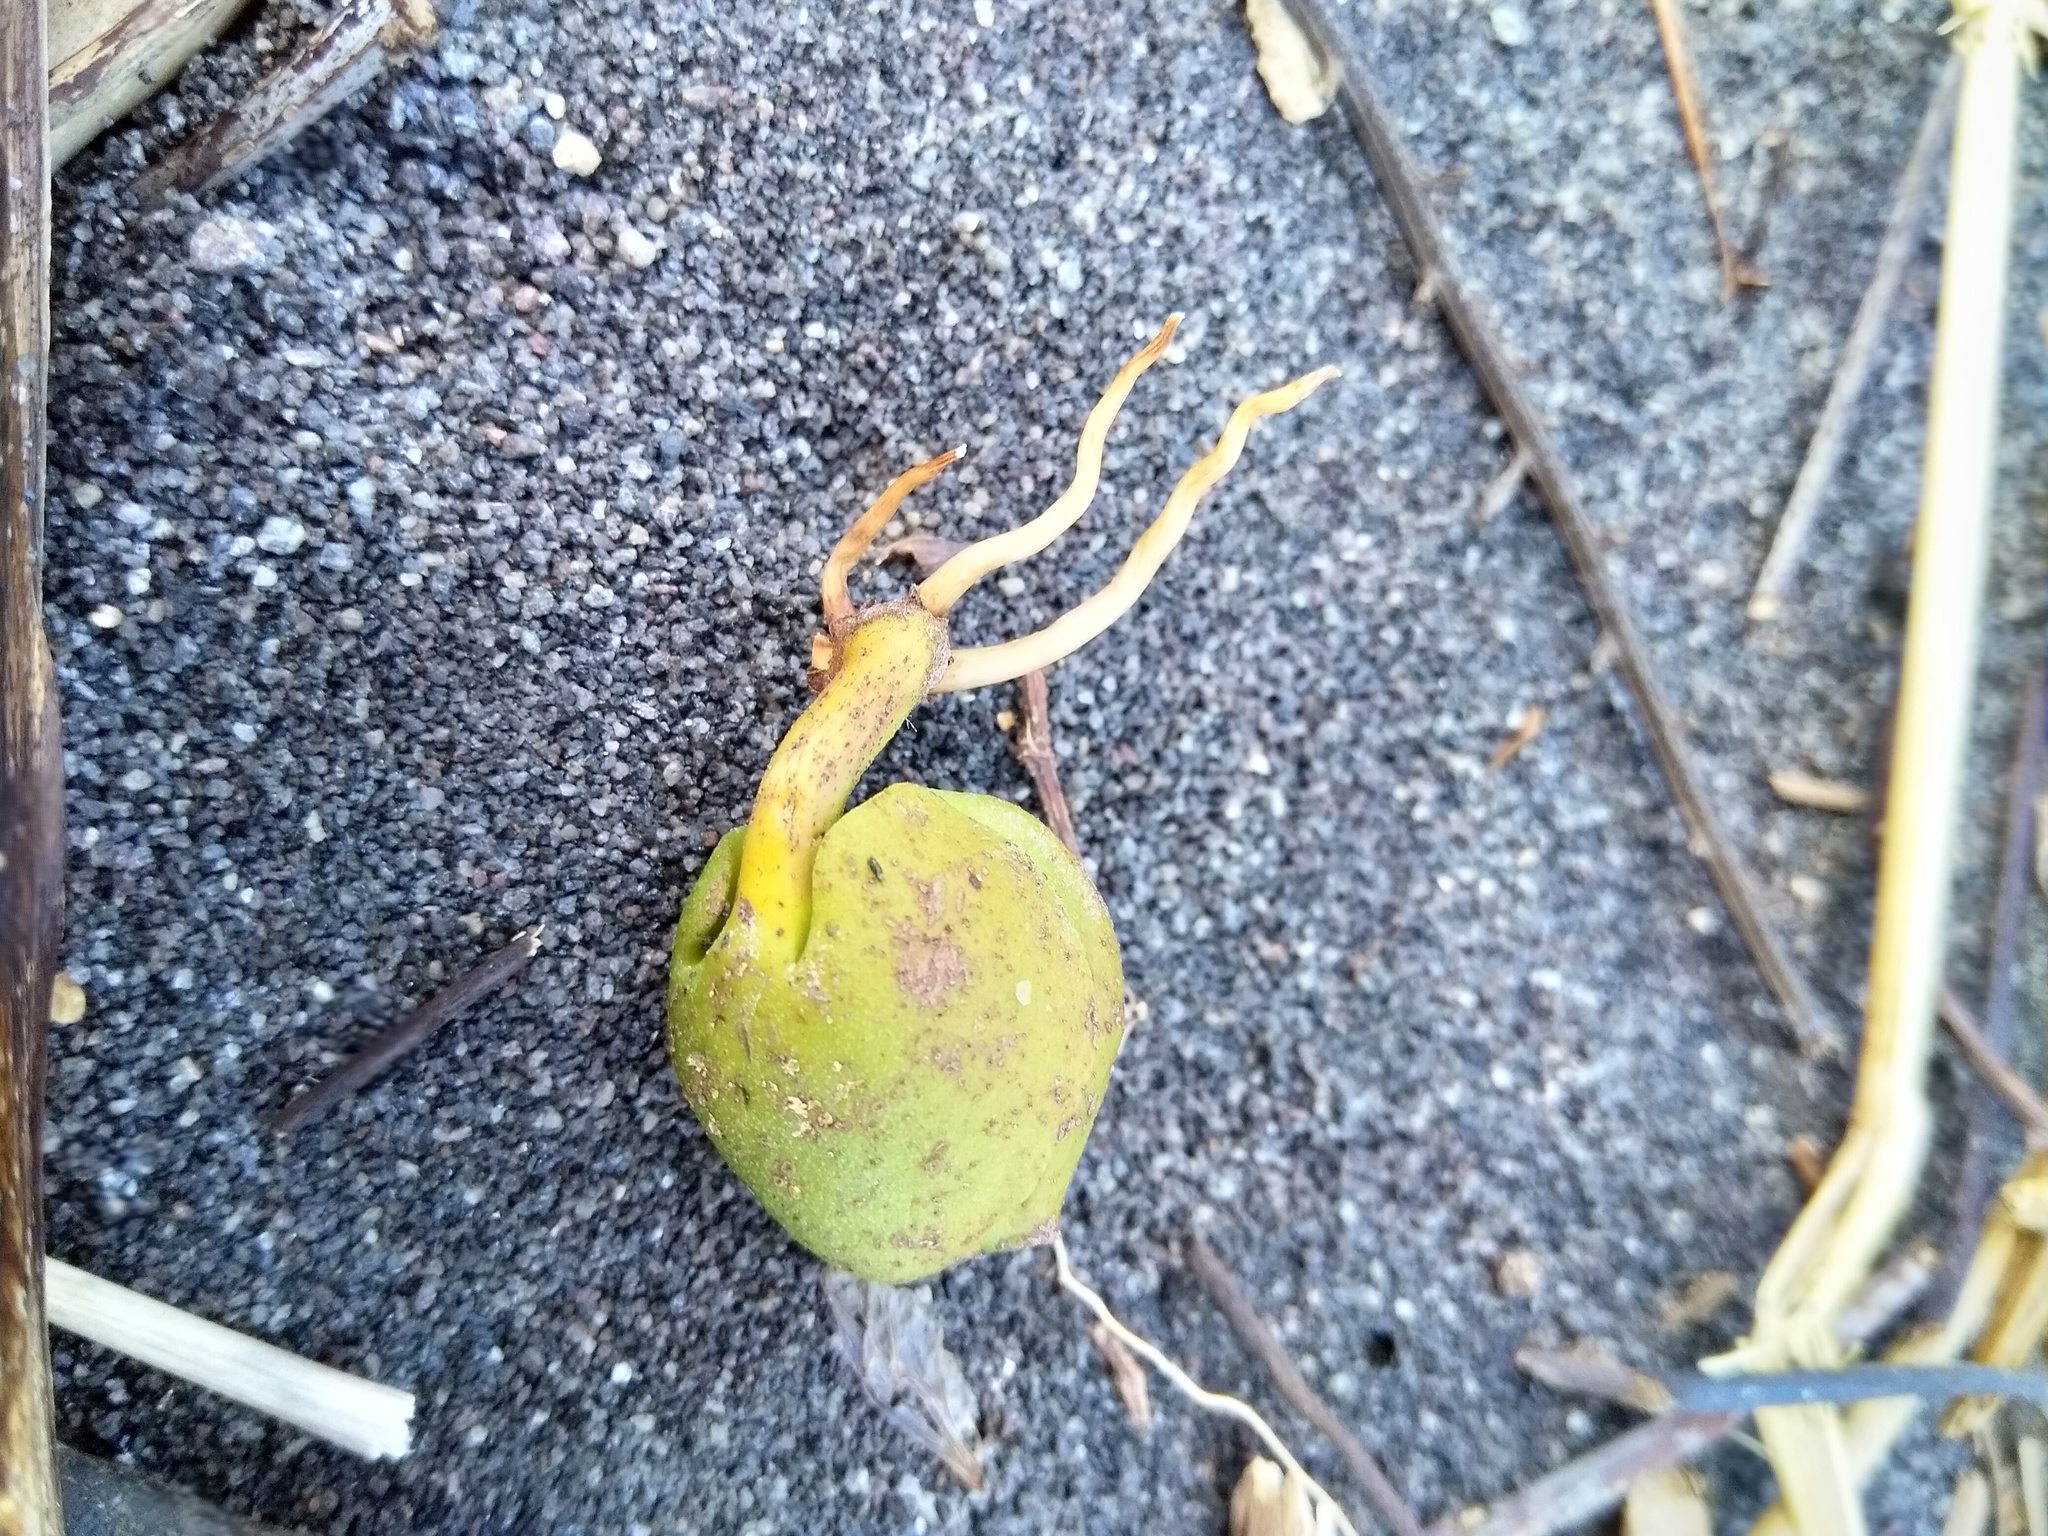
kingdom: Plantae
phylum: Tracheophyta
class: Magnoliopsida
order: Lamiales
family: Acanthaceae
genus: Avicennia
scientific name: Avicennia marina
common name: Gray mangrove
